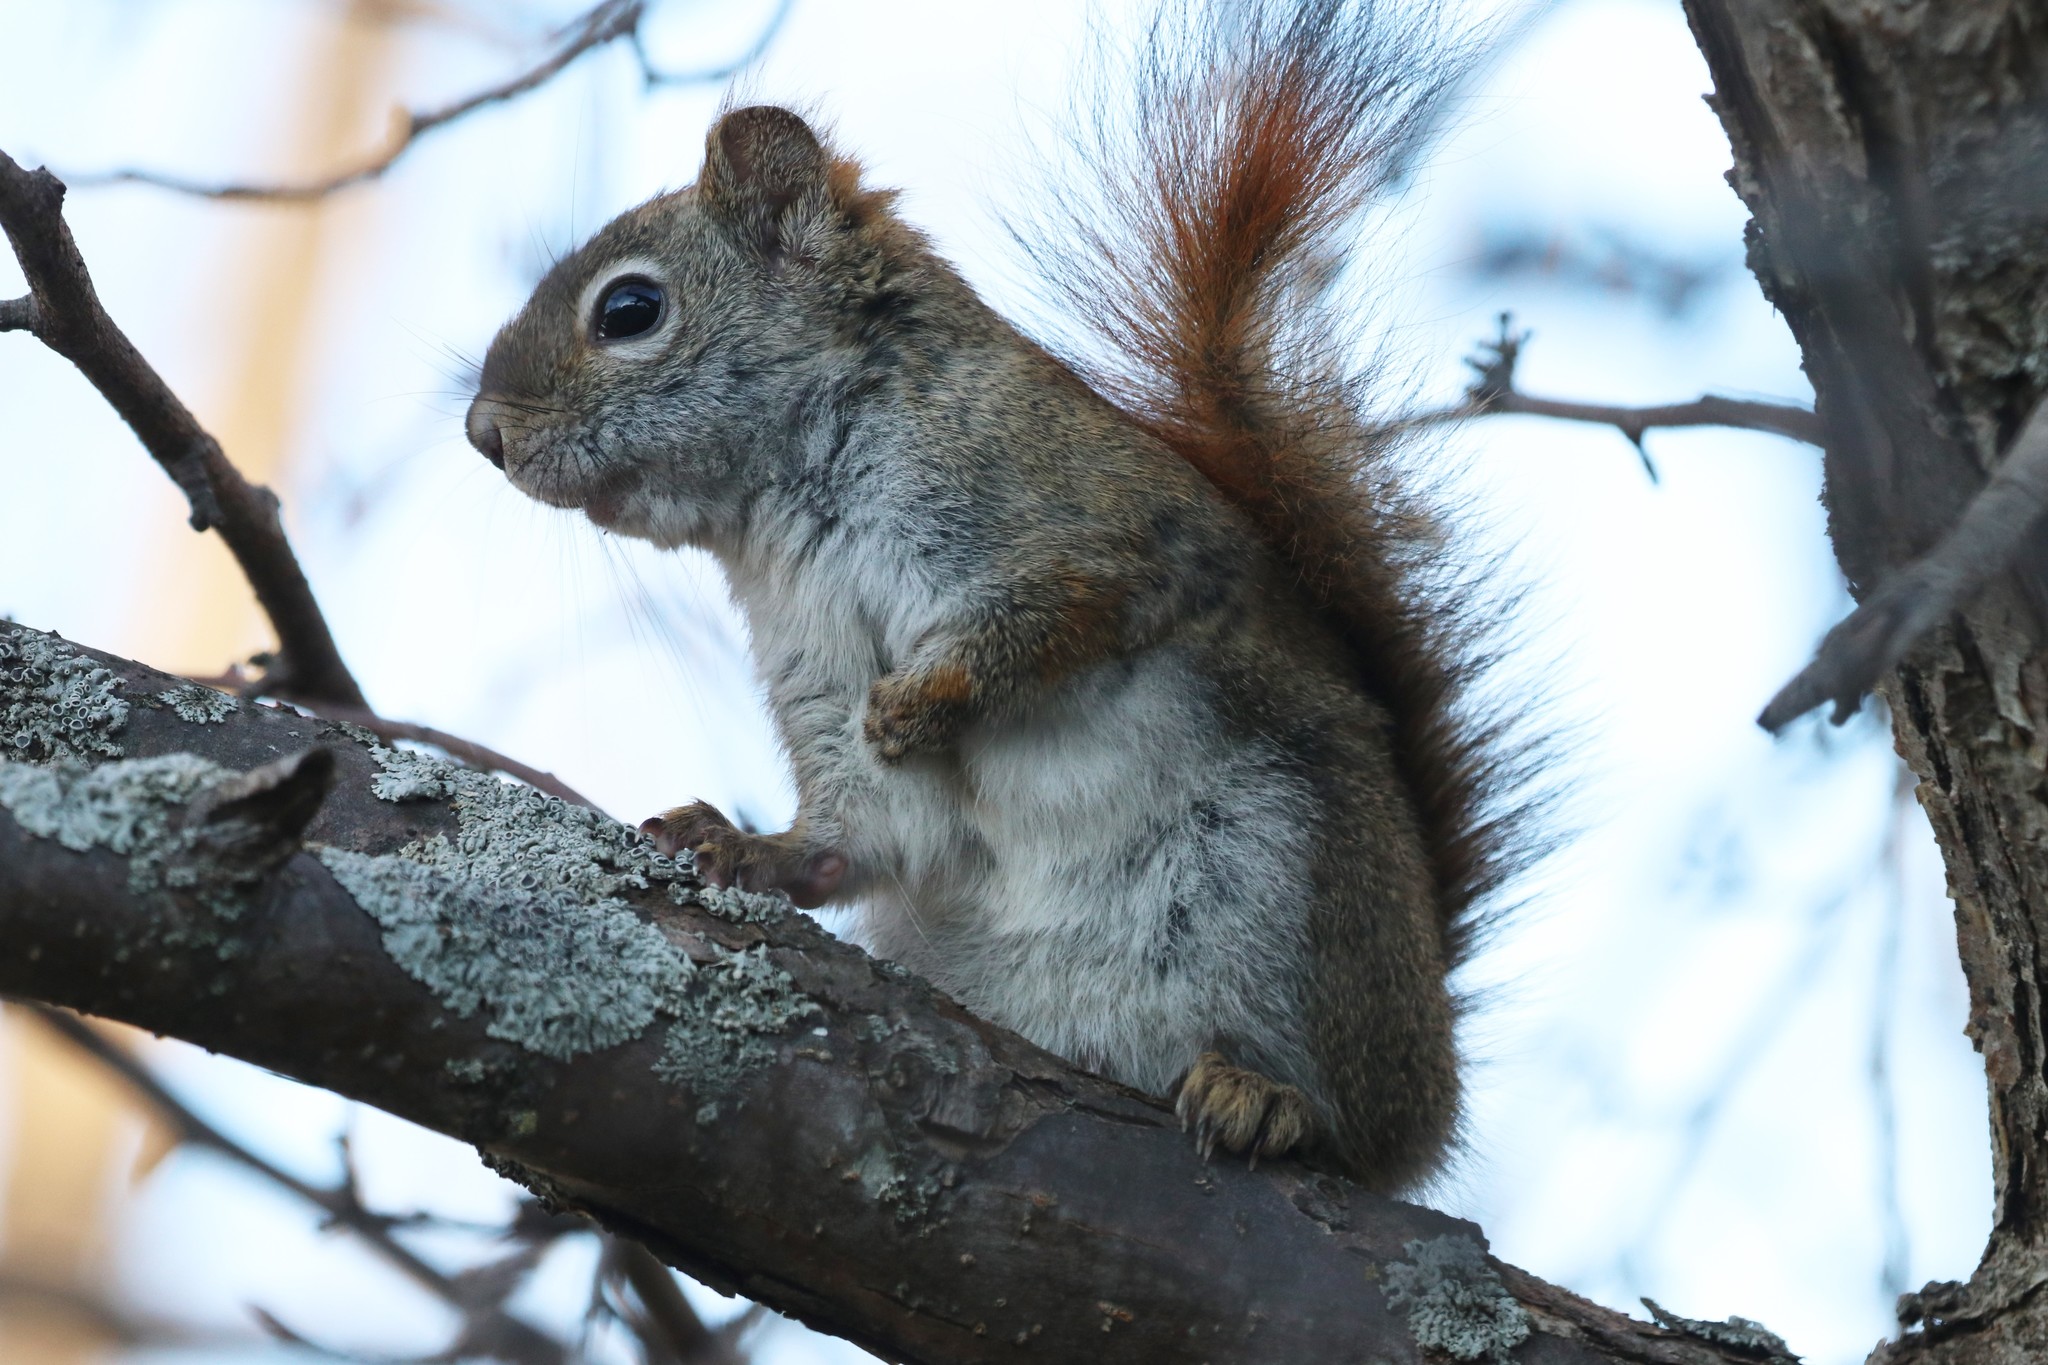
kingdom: Animalia
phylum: Chordata
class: Mammalia
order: Rodentia
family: Sciuridae
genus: Tamiasciurus
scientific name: Tamiasciurus hudsonicus
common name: Red squirrel
